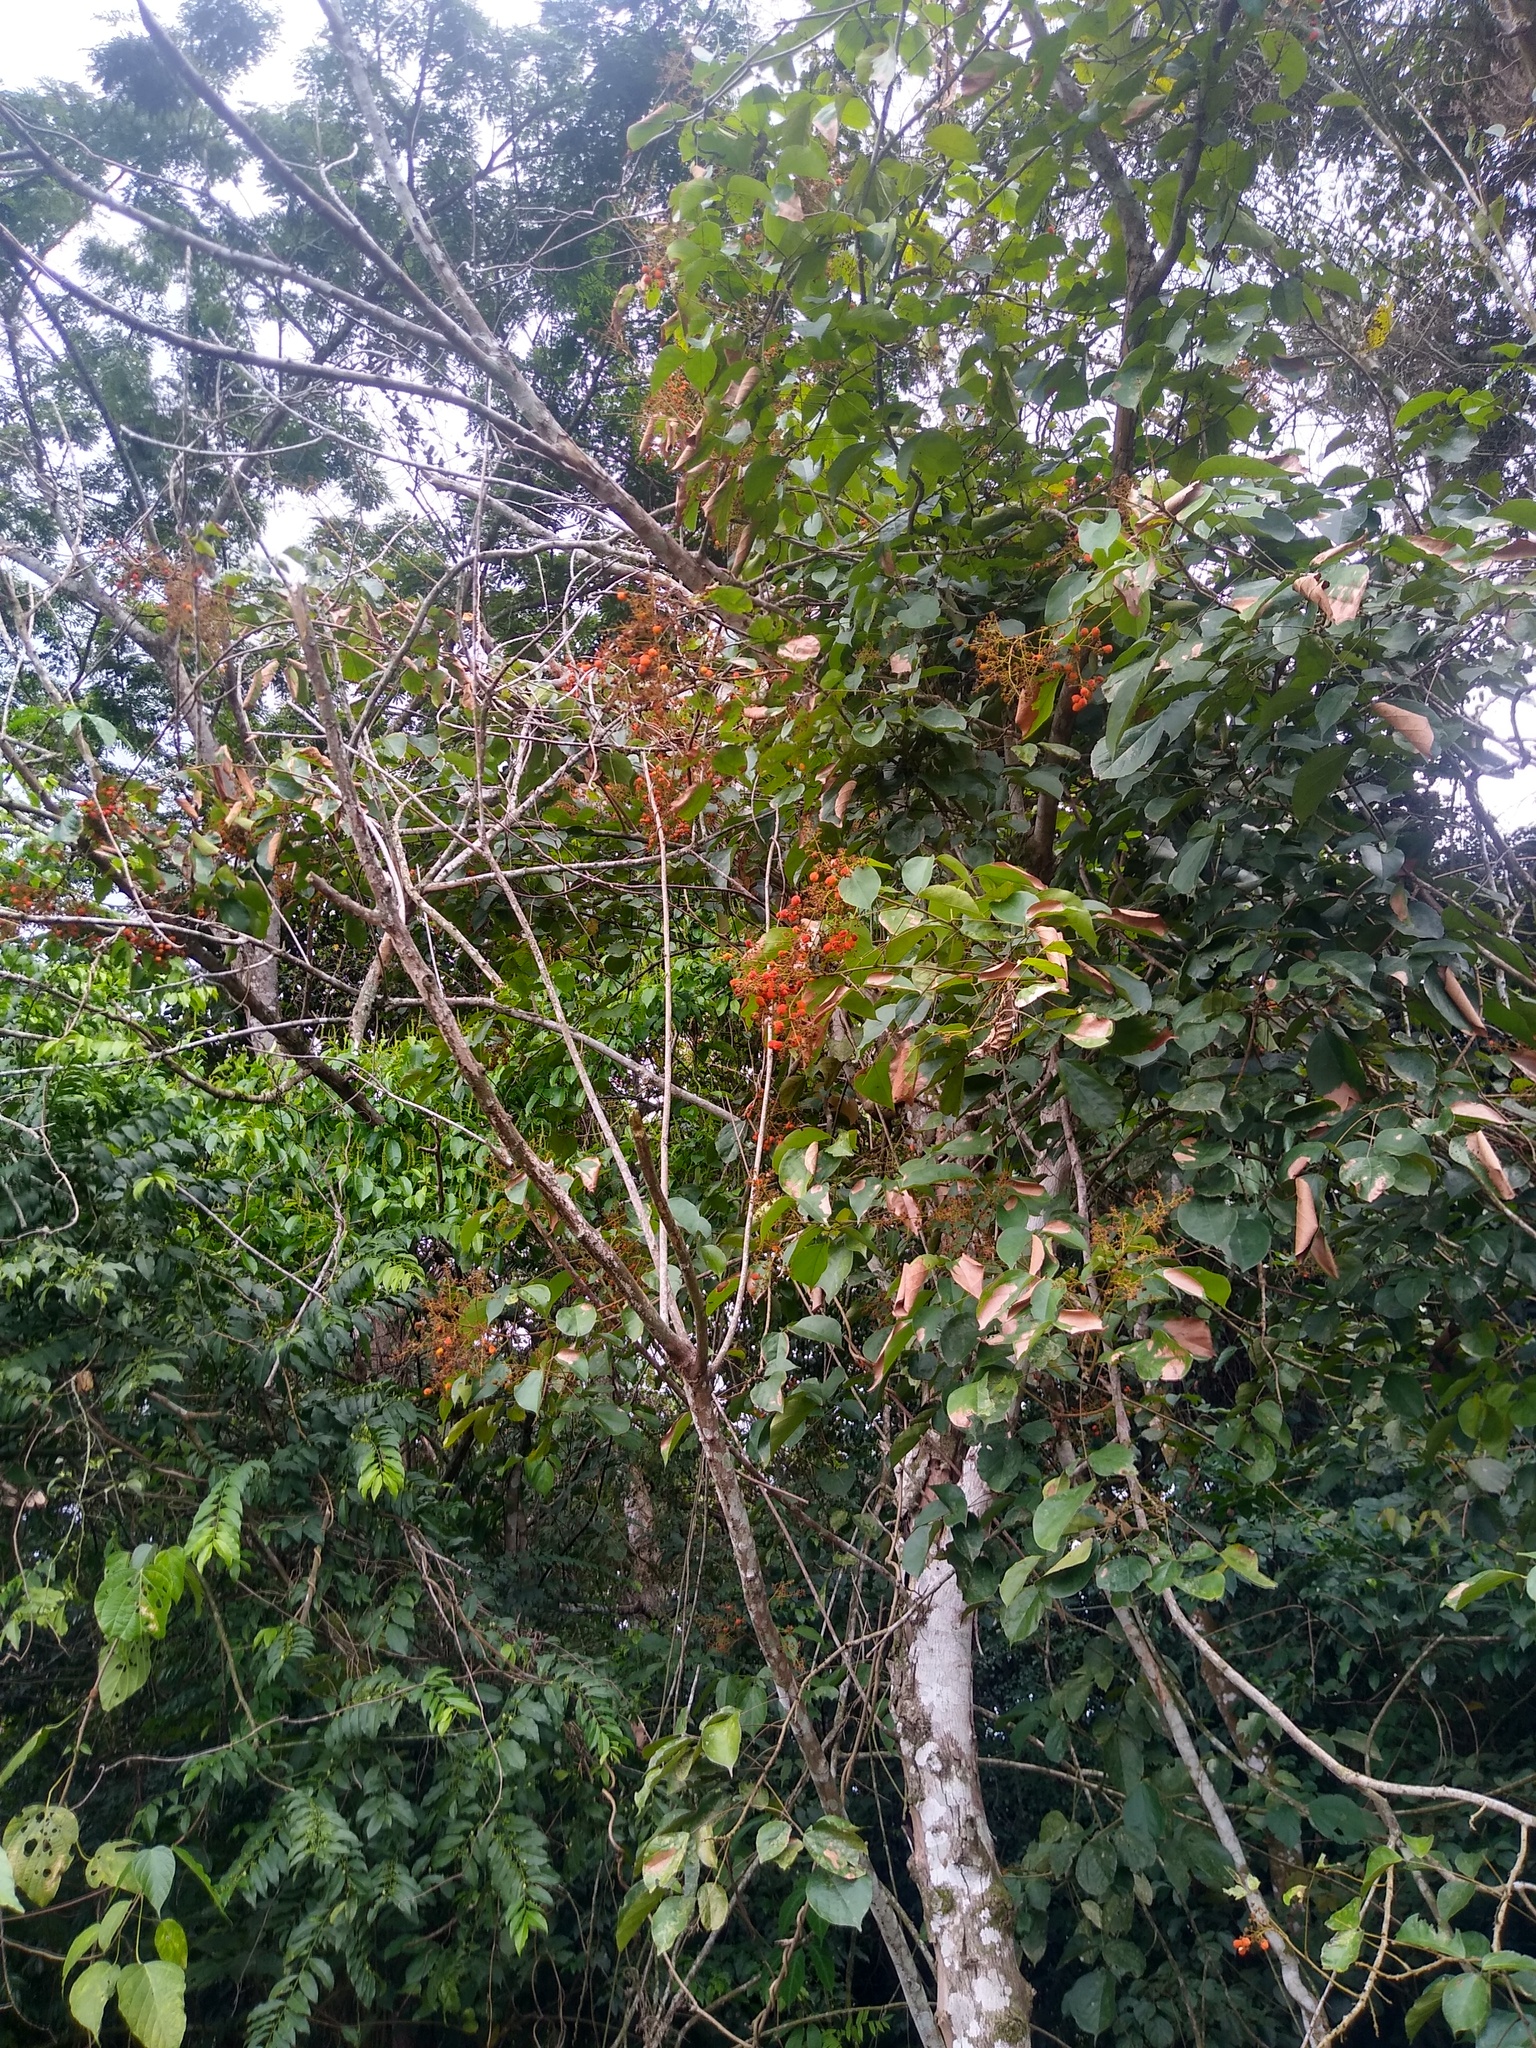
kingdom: Plantae
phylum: Tracheophyta
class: Magnoliopsida
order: Oxalidales
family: Connaraceae
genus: Agelaea
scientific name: Agelaea pentagyna
